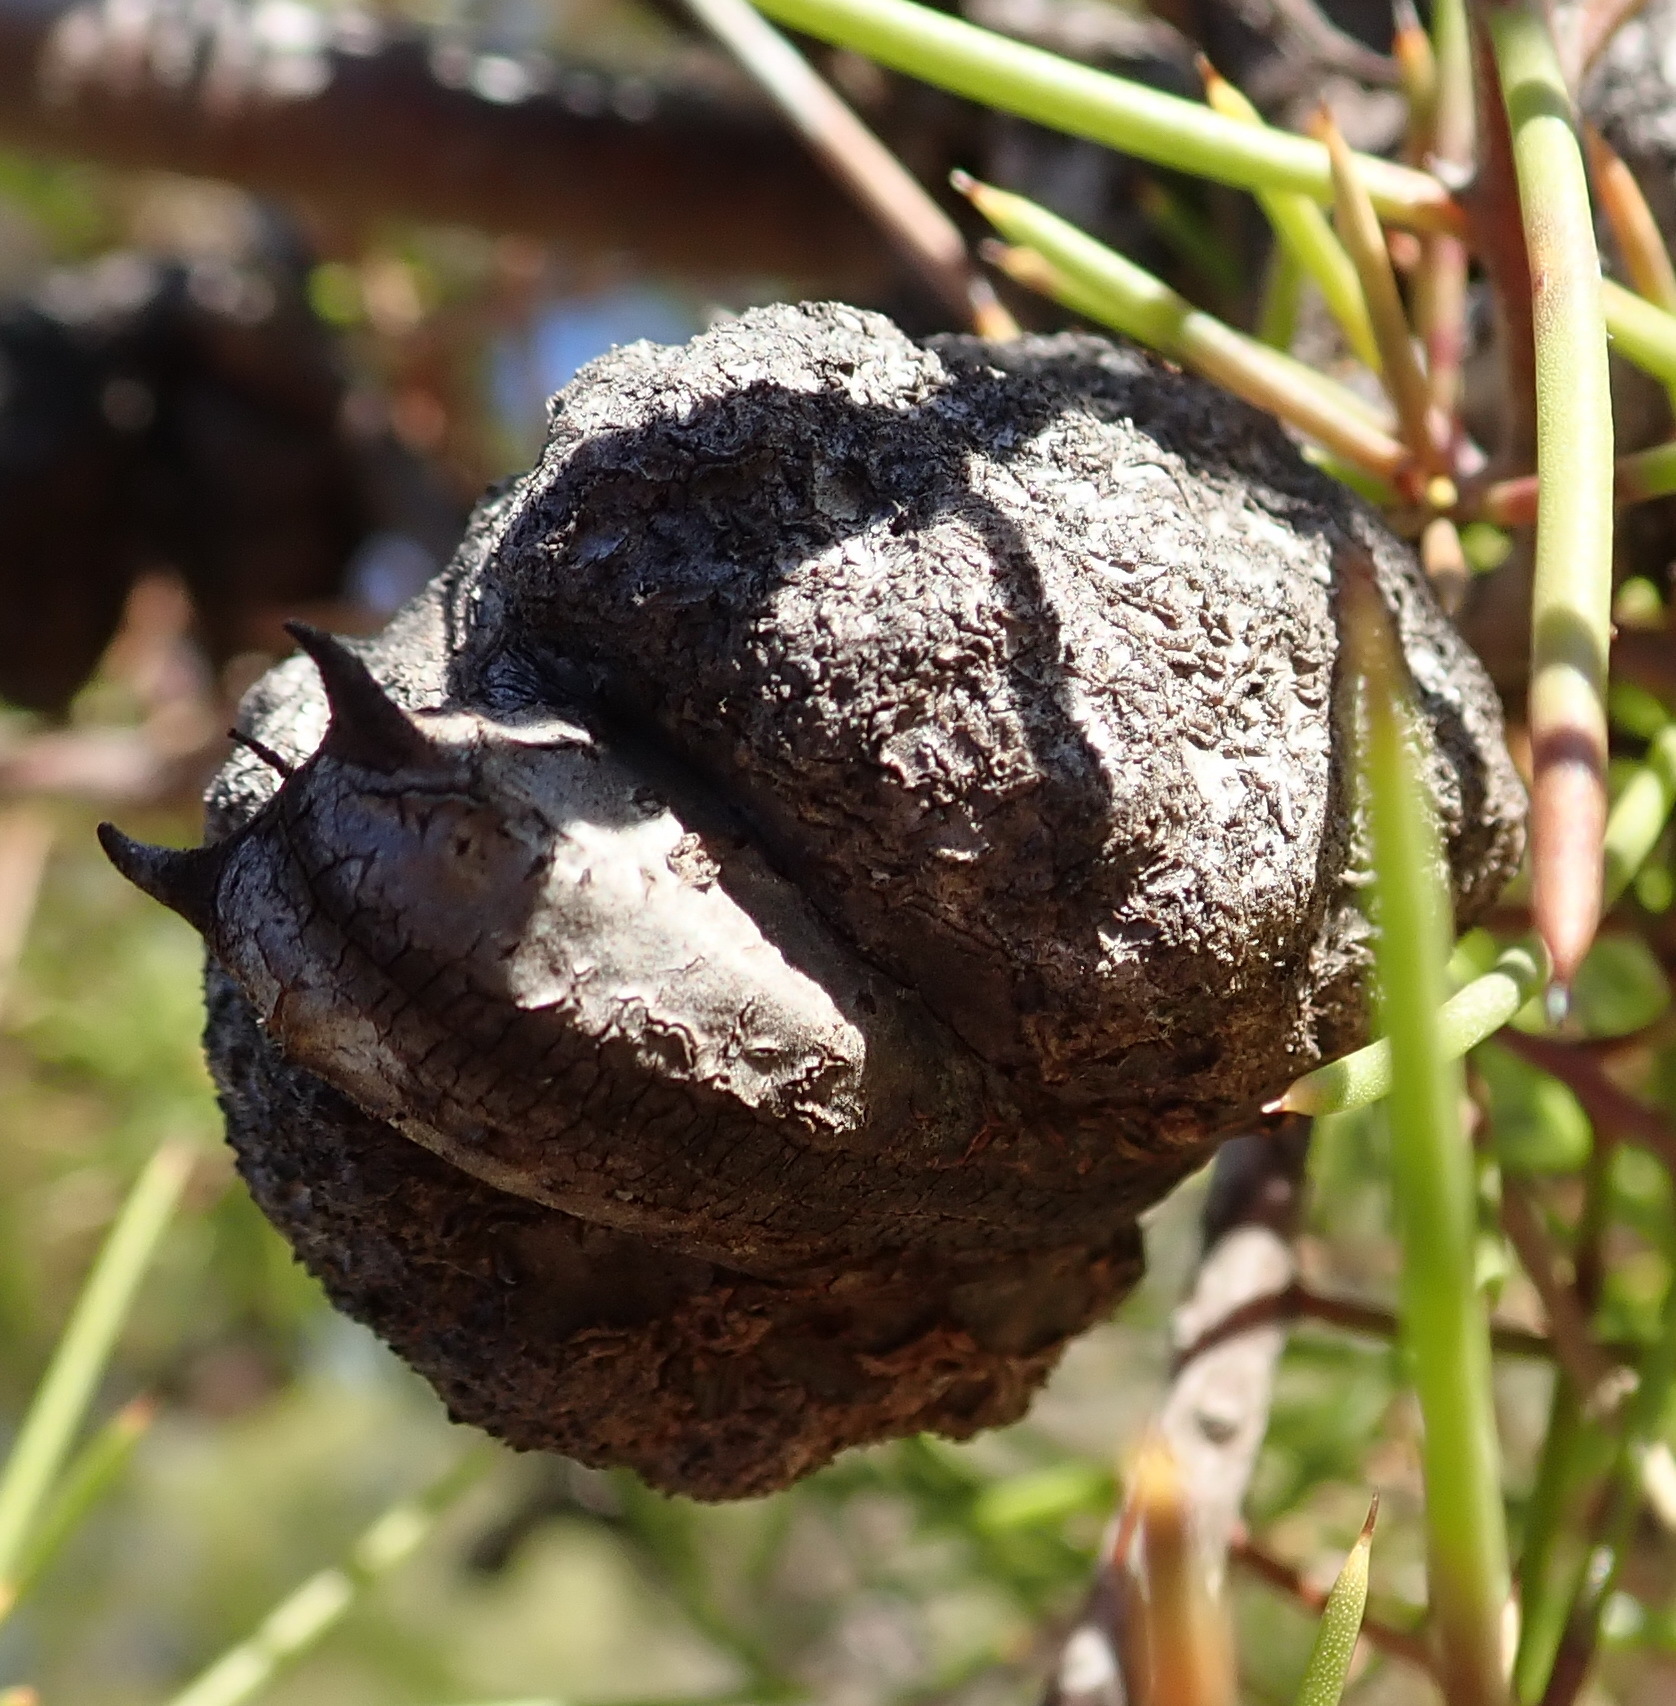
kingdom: Plantae
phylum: Tracheophyta
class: Magnoliopsida
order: Proteales
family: Proteaceae
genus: Hakea
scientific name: Hakea sericea
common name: Needle bush
